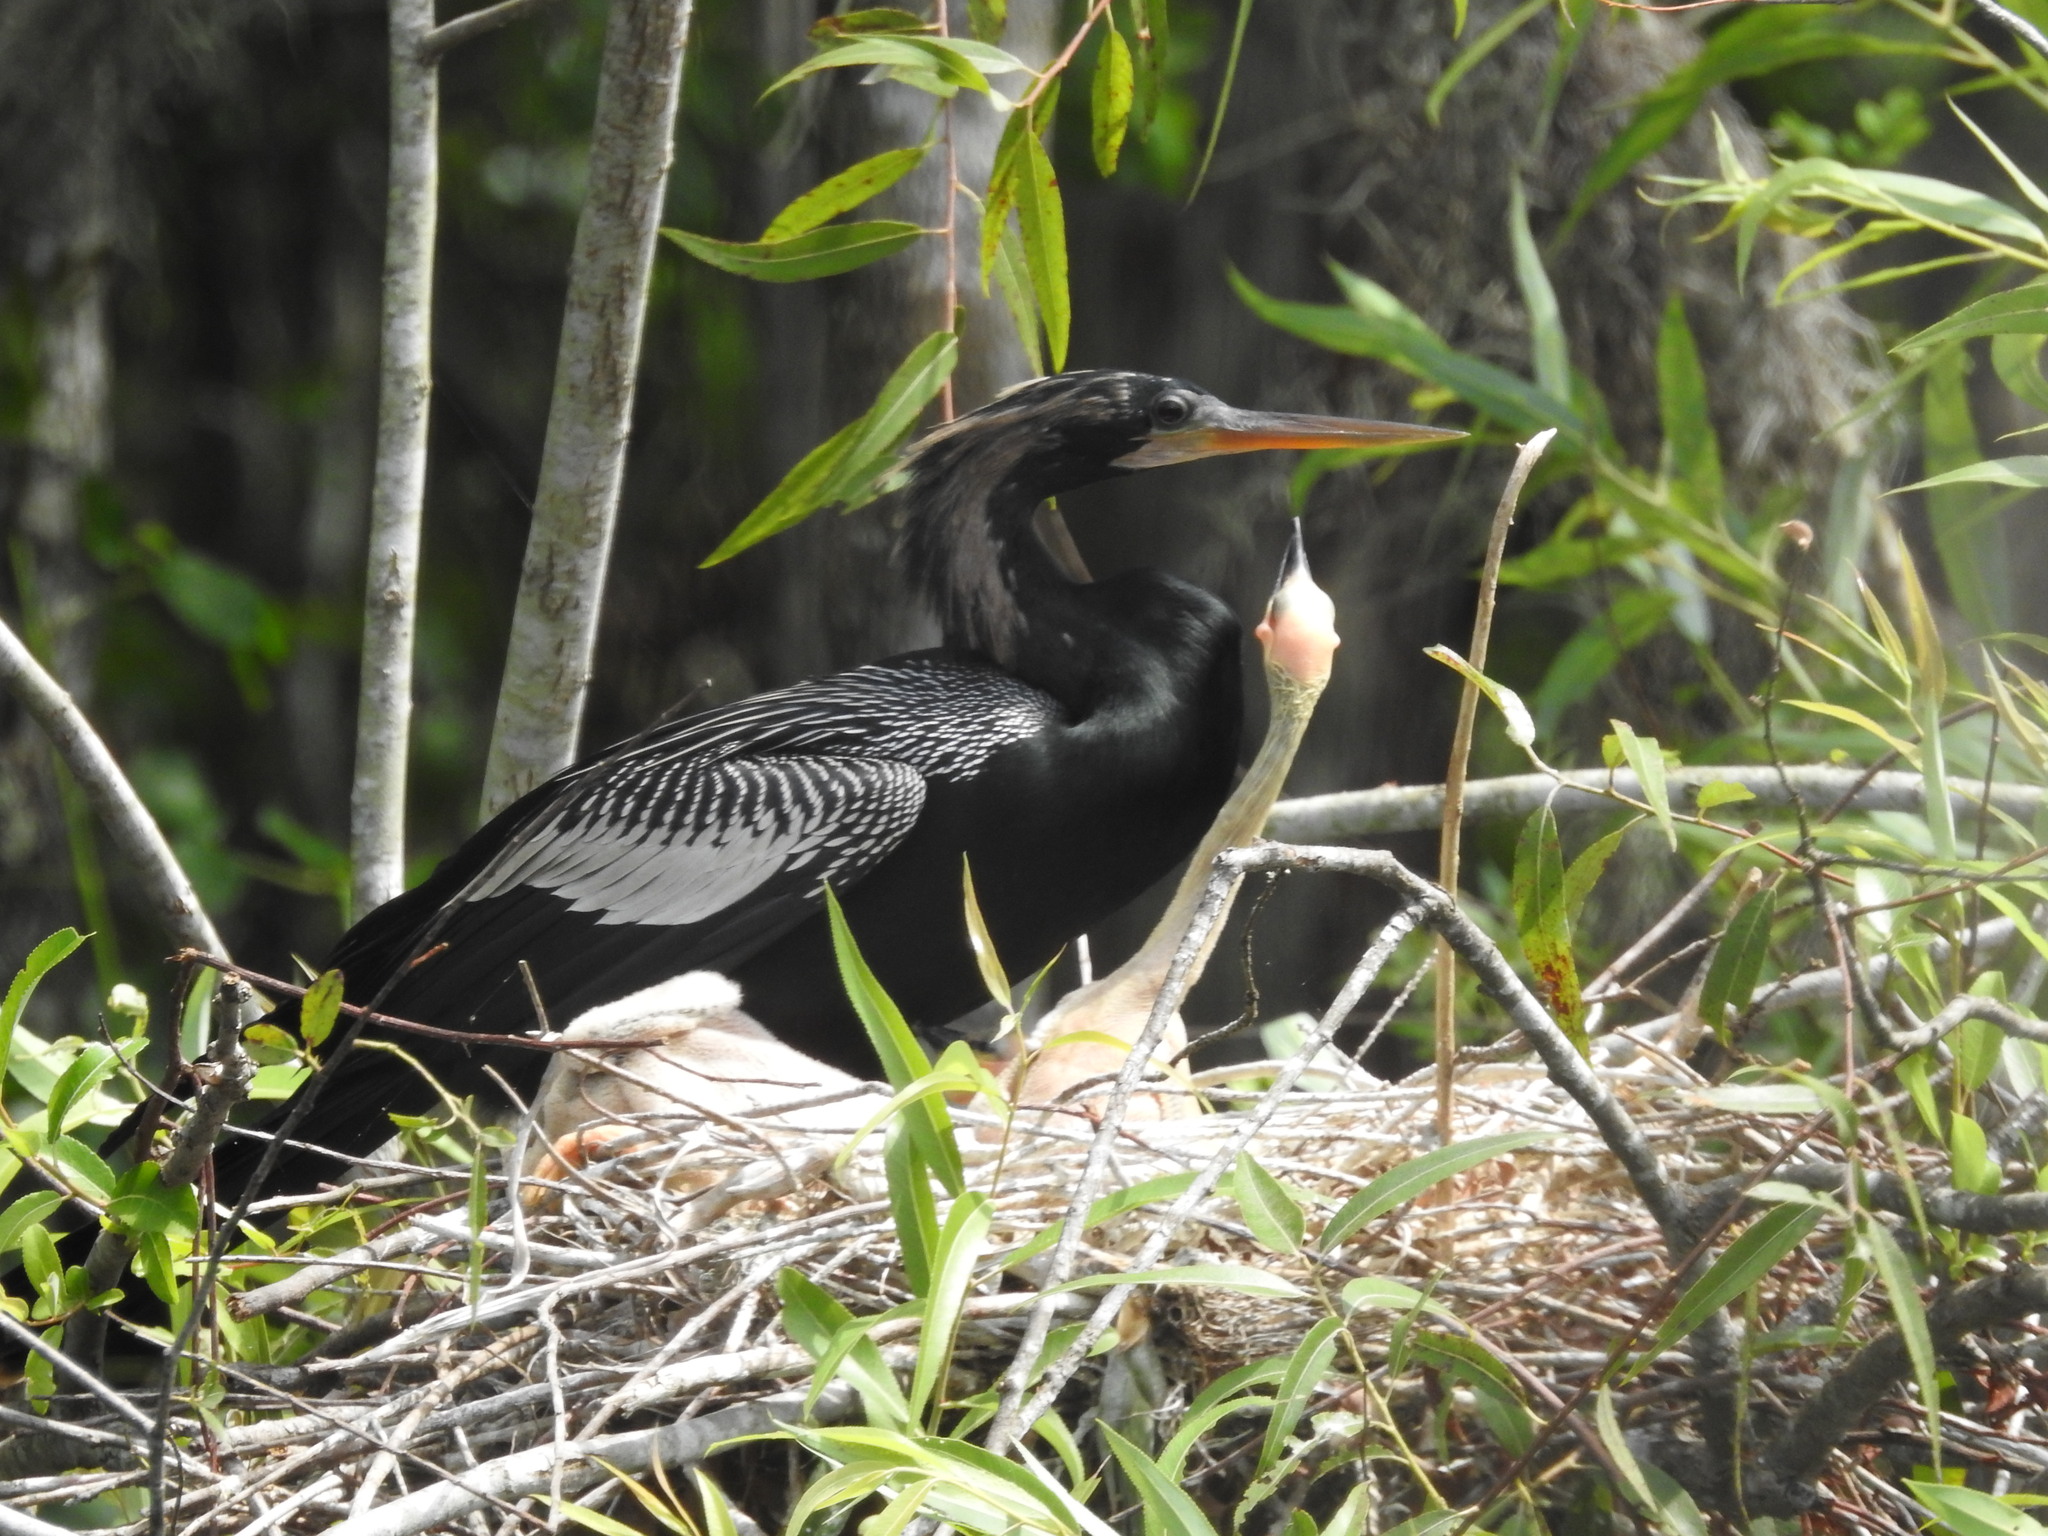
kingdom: Animalia
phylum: Chordata
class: Aves
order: Suliformes
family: Anhingidae
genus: Anhinga
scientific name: Anhinga anhinga
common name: Anhinga
